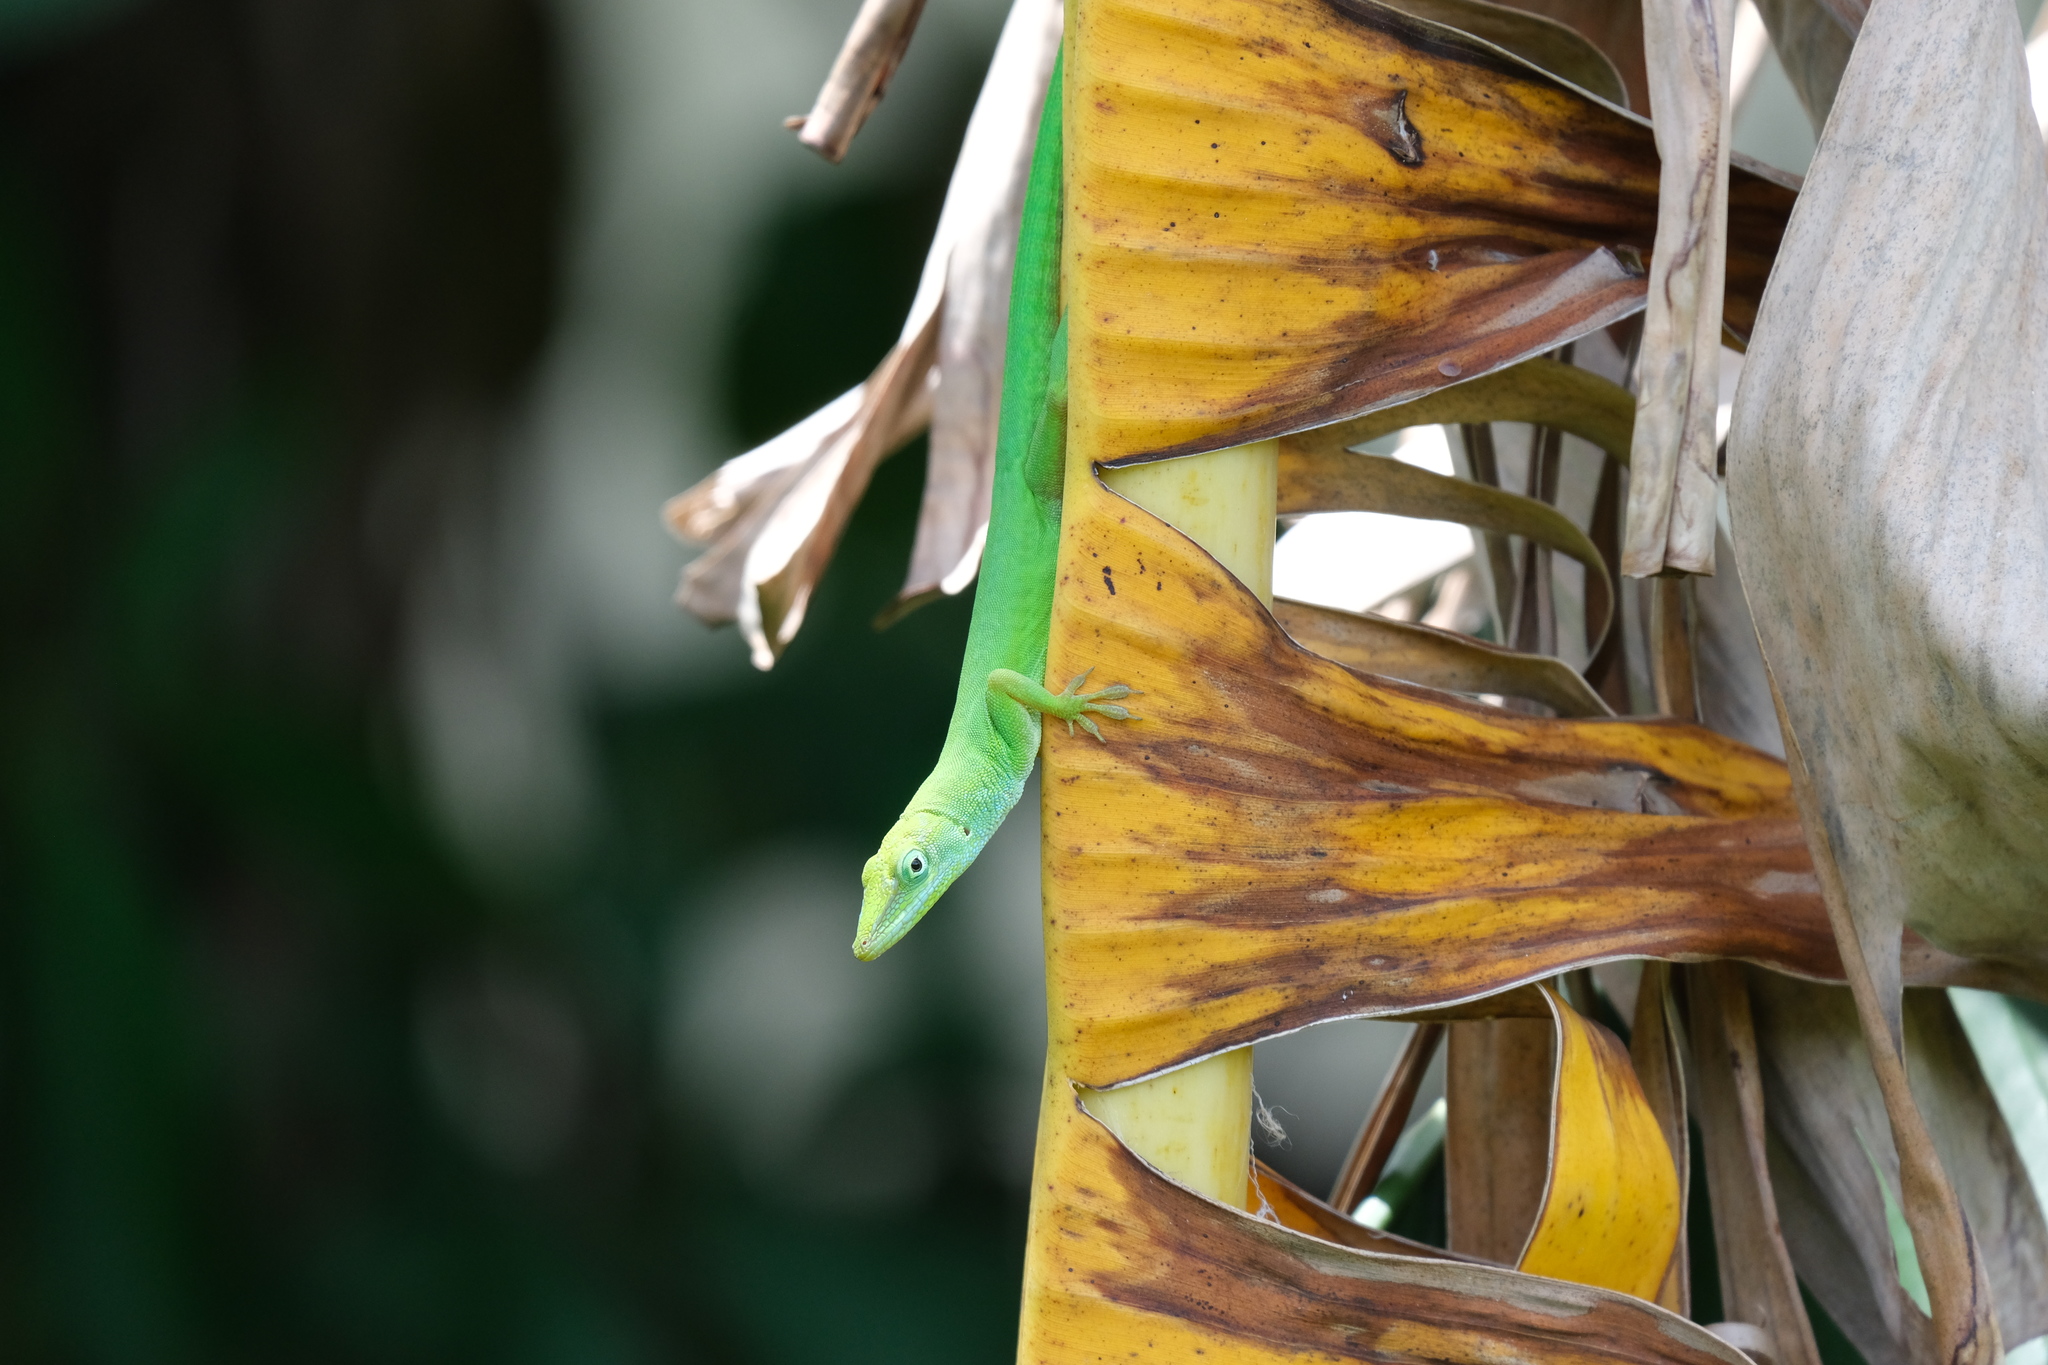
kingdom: Animalia
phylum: Chordata
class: Squamata
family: Dactyloidae
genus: Anolis
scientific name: Anolis chlorocyanus
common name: Hispaniolan green anole
